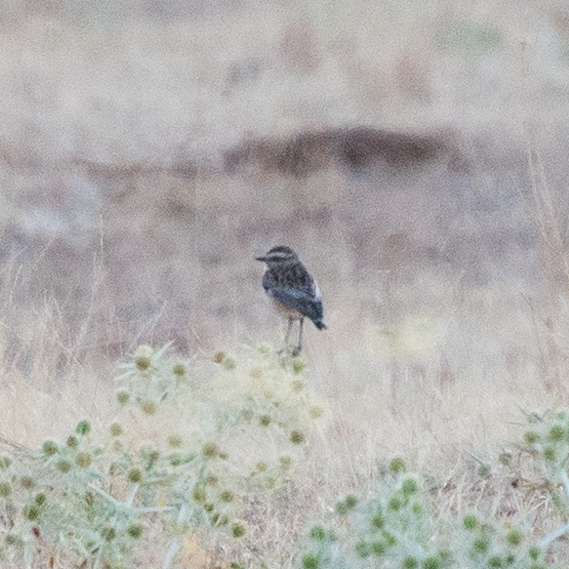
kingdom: Animalia
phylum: Chordata
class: Aves
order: Passeriformes
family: Muscicapidae
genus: Saxicola
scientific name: Saxicola rubetra
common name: Whinchat
